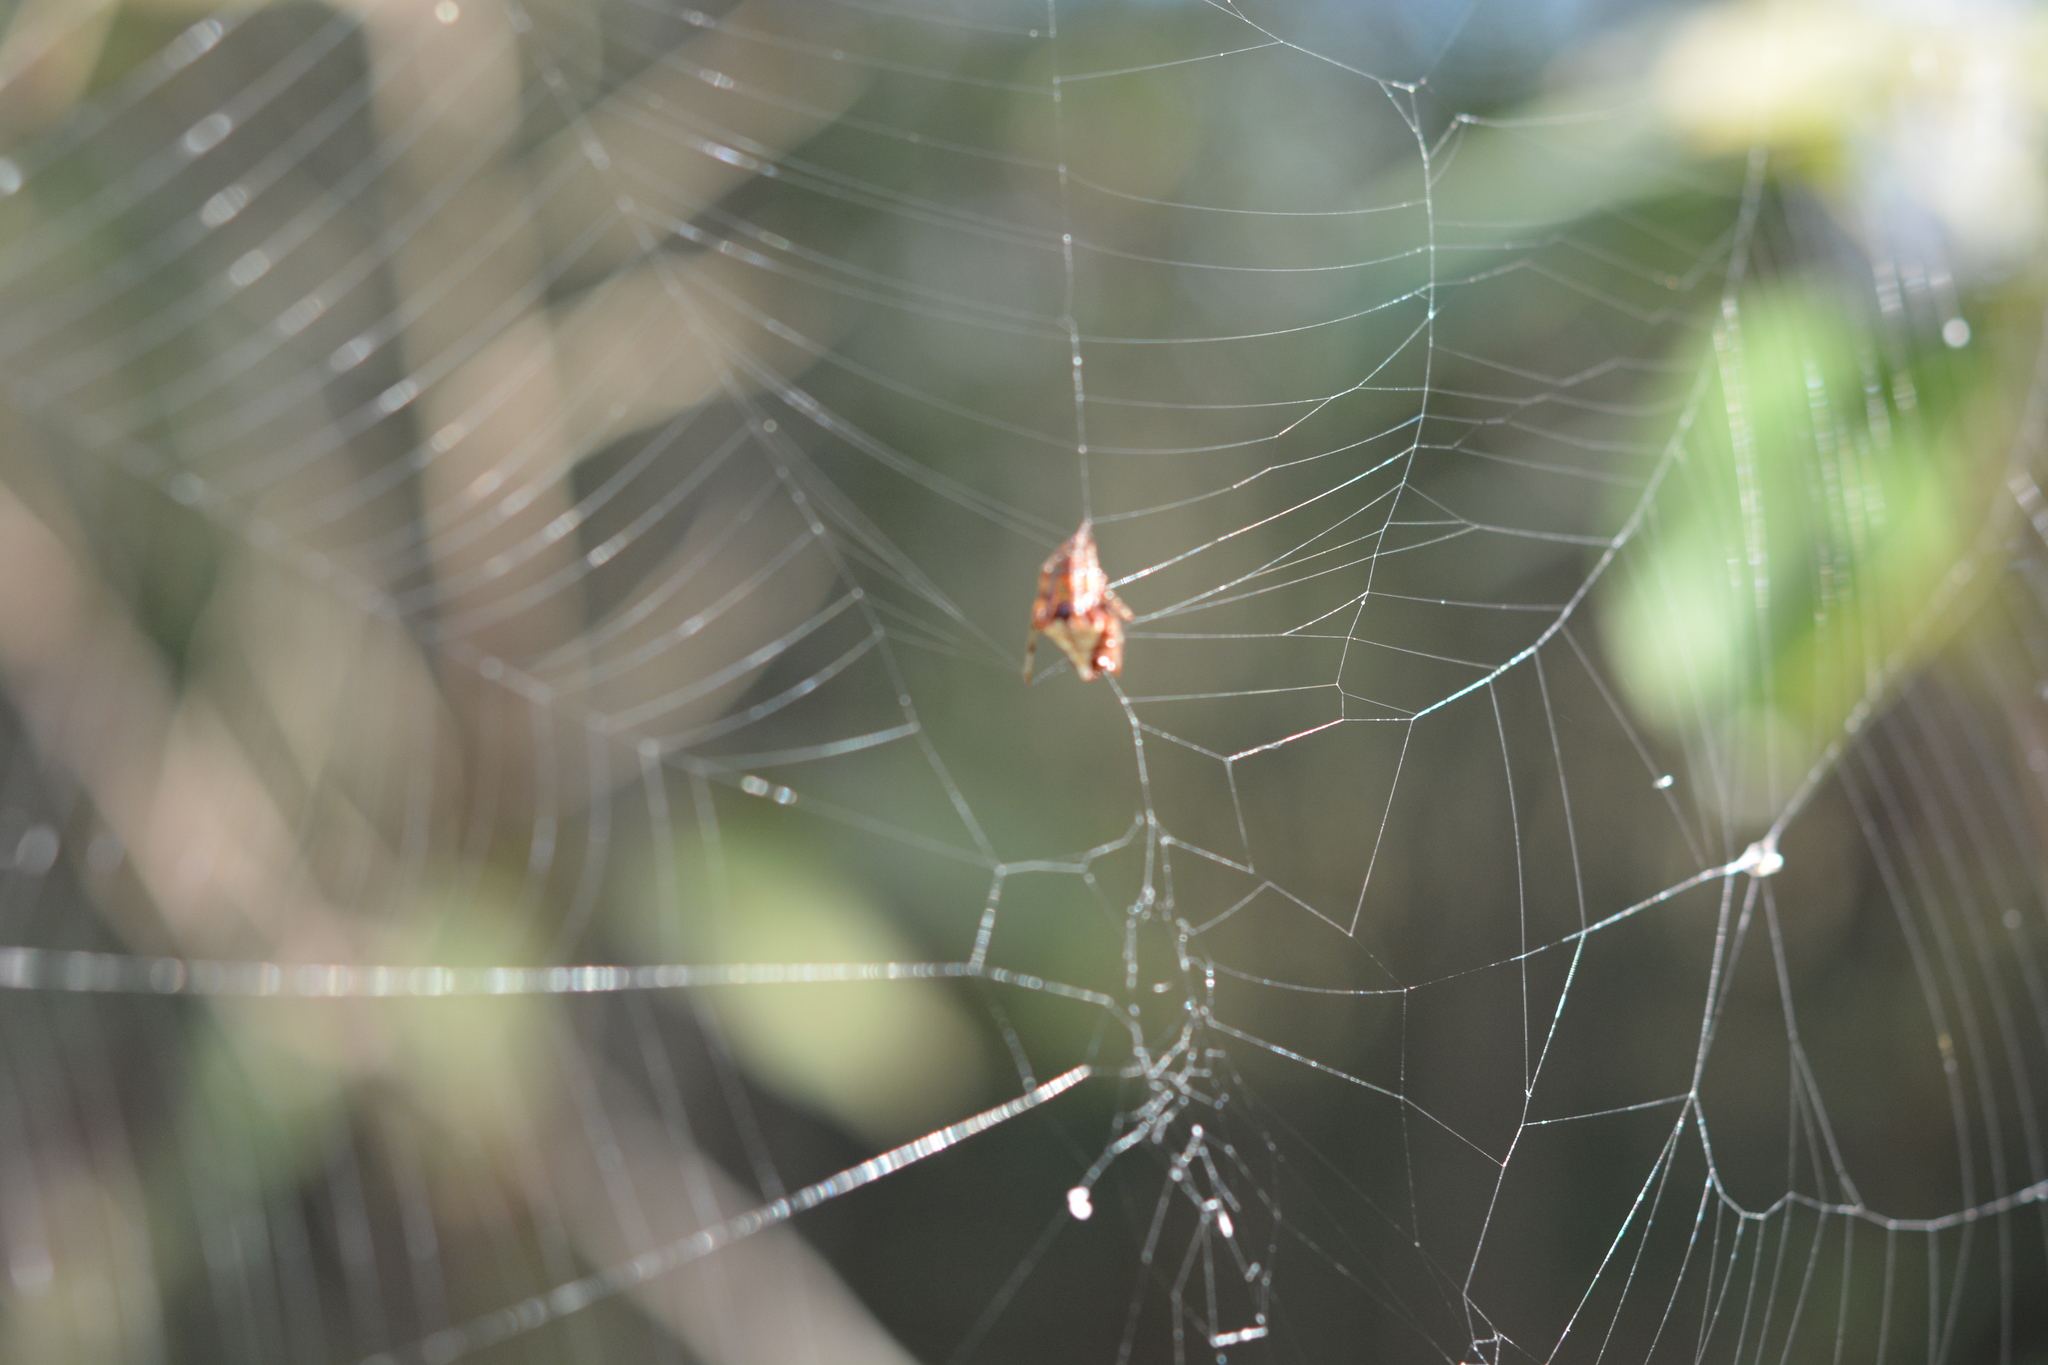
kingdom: Animalia
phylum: Arthropoda
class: Arachnida
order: Araneae
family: Araneidae
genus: Verrucosa
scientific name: Verrucosa arenata
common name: Orb weavers
